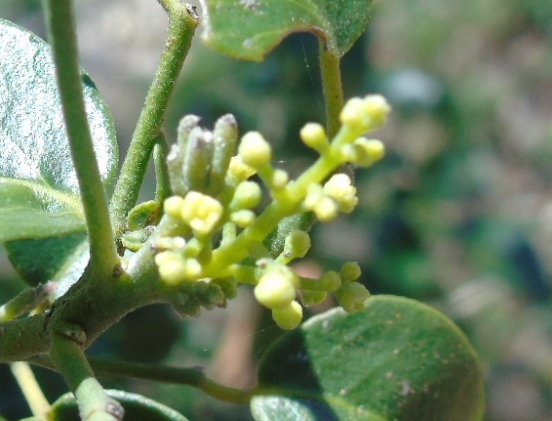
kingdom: Plantae
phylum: Tracheophyta
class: Magnoliopsida
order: Sapindales
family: Rutaceae
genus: Amyris
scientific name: Amyris balsamifera
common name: Balsam amyris
